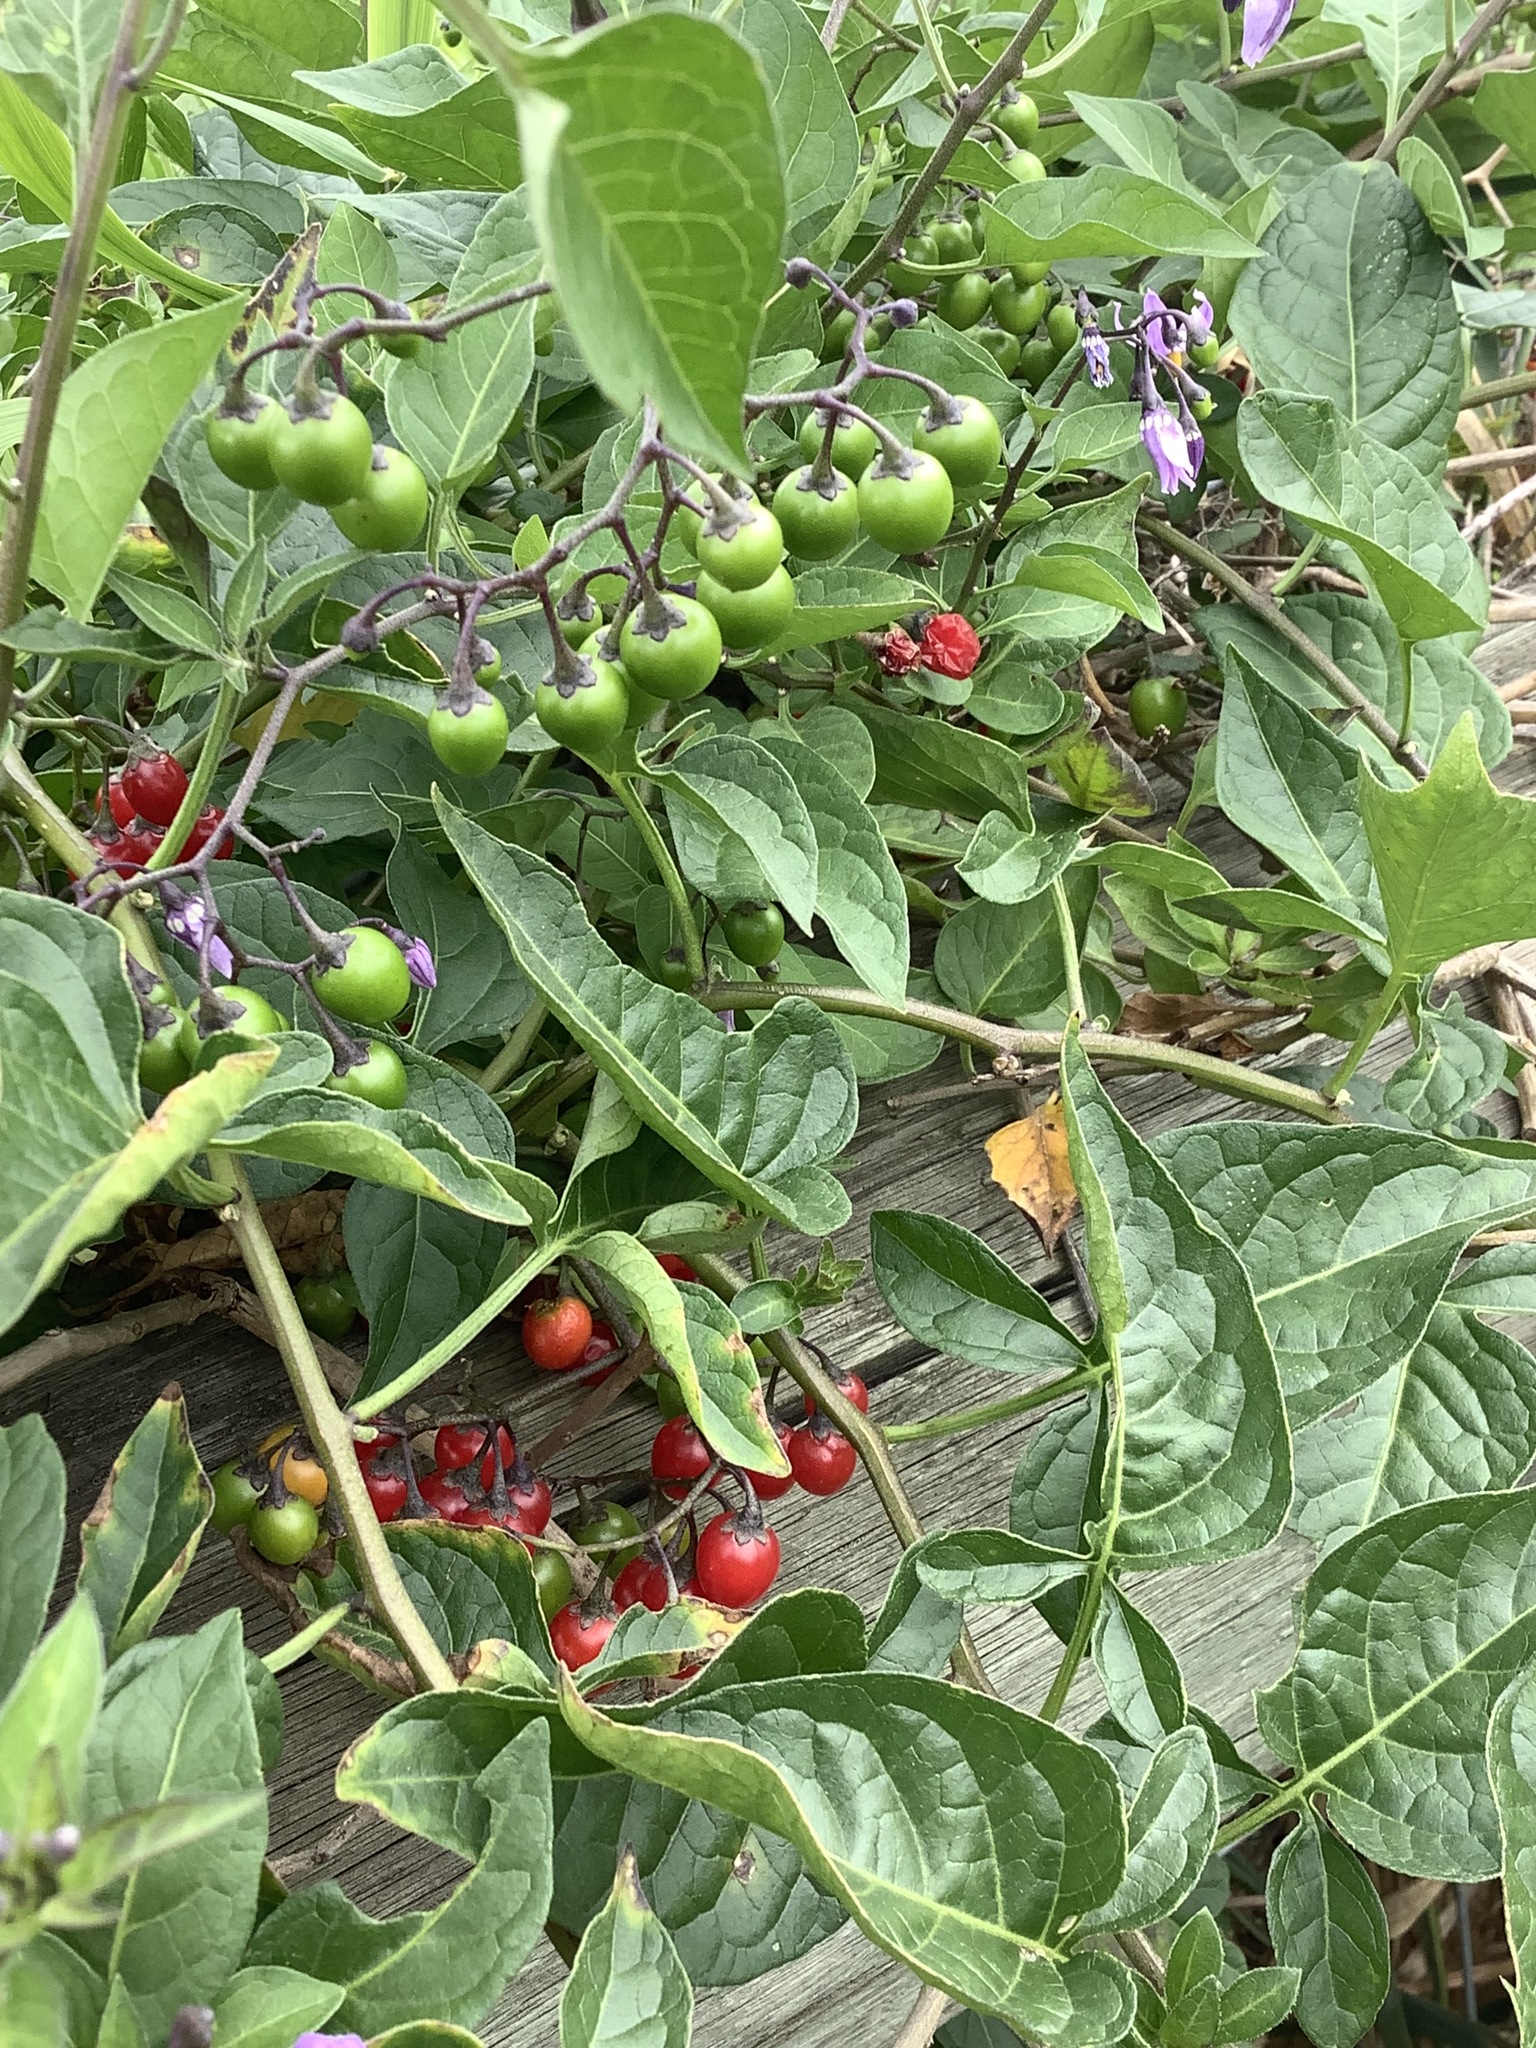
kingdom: Plantae
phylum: Tracheophyta
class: Magnoliopsida
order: Solanales
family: Solanaceae
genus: Solanum
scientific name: Solanum dulcamara
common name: Climbing nightshade
